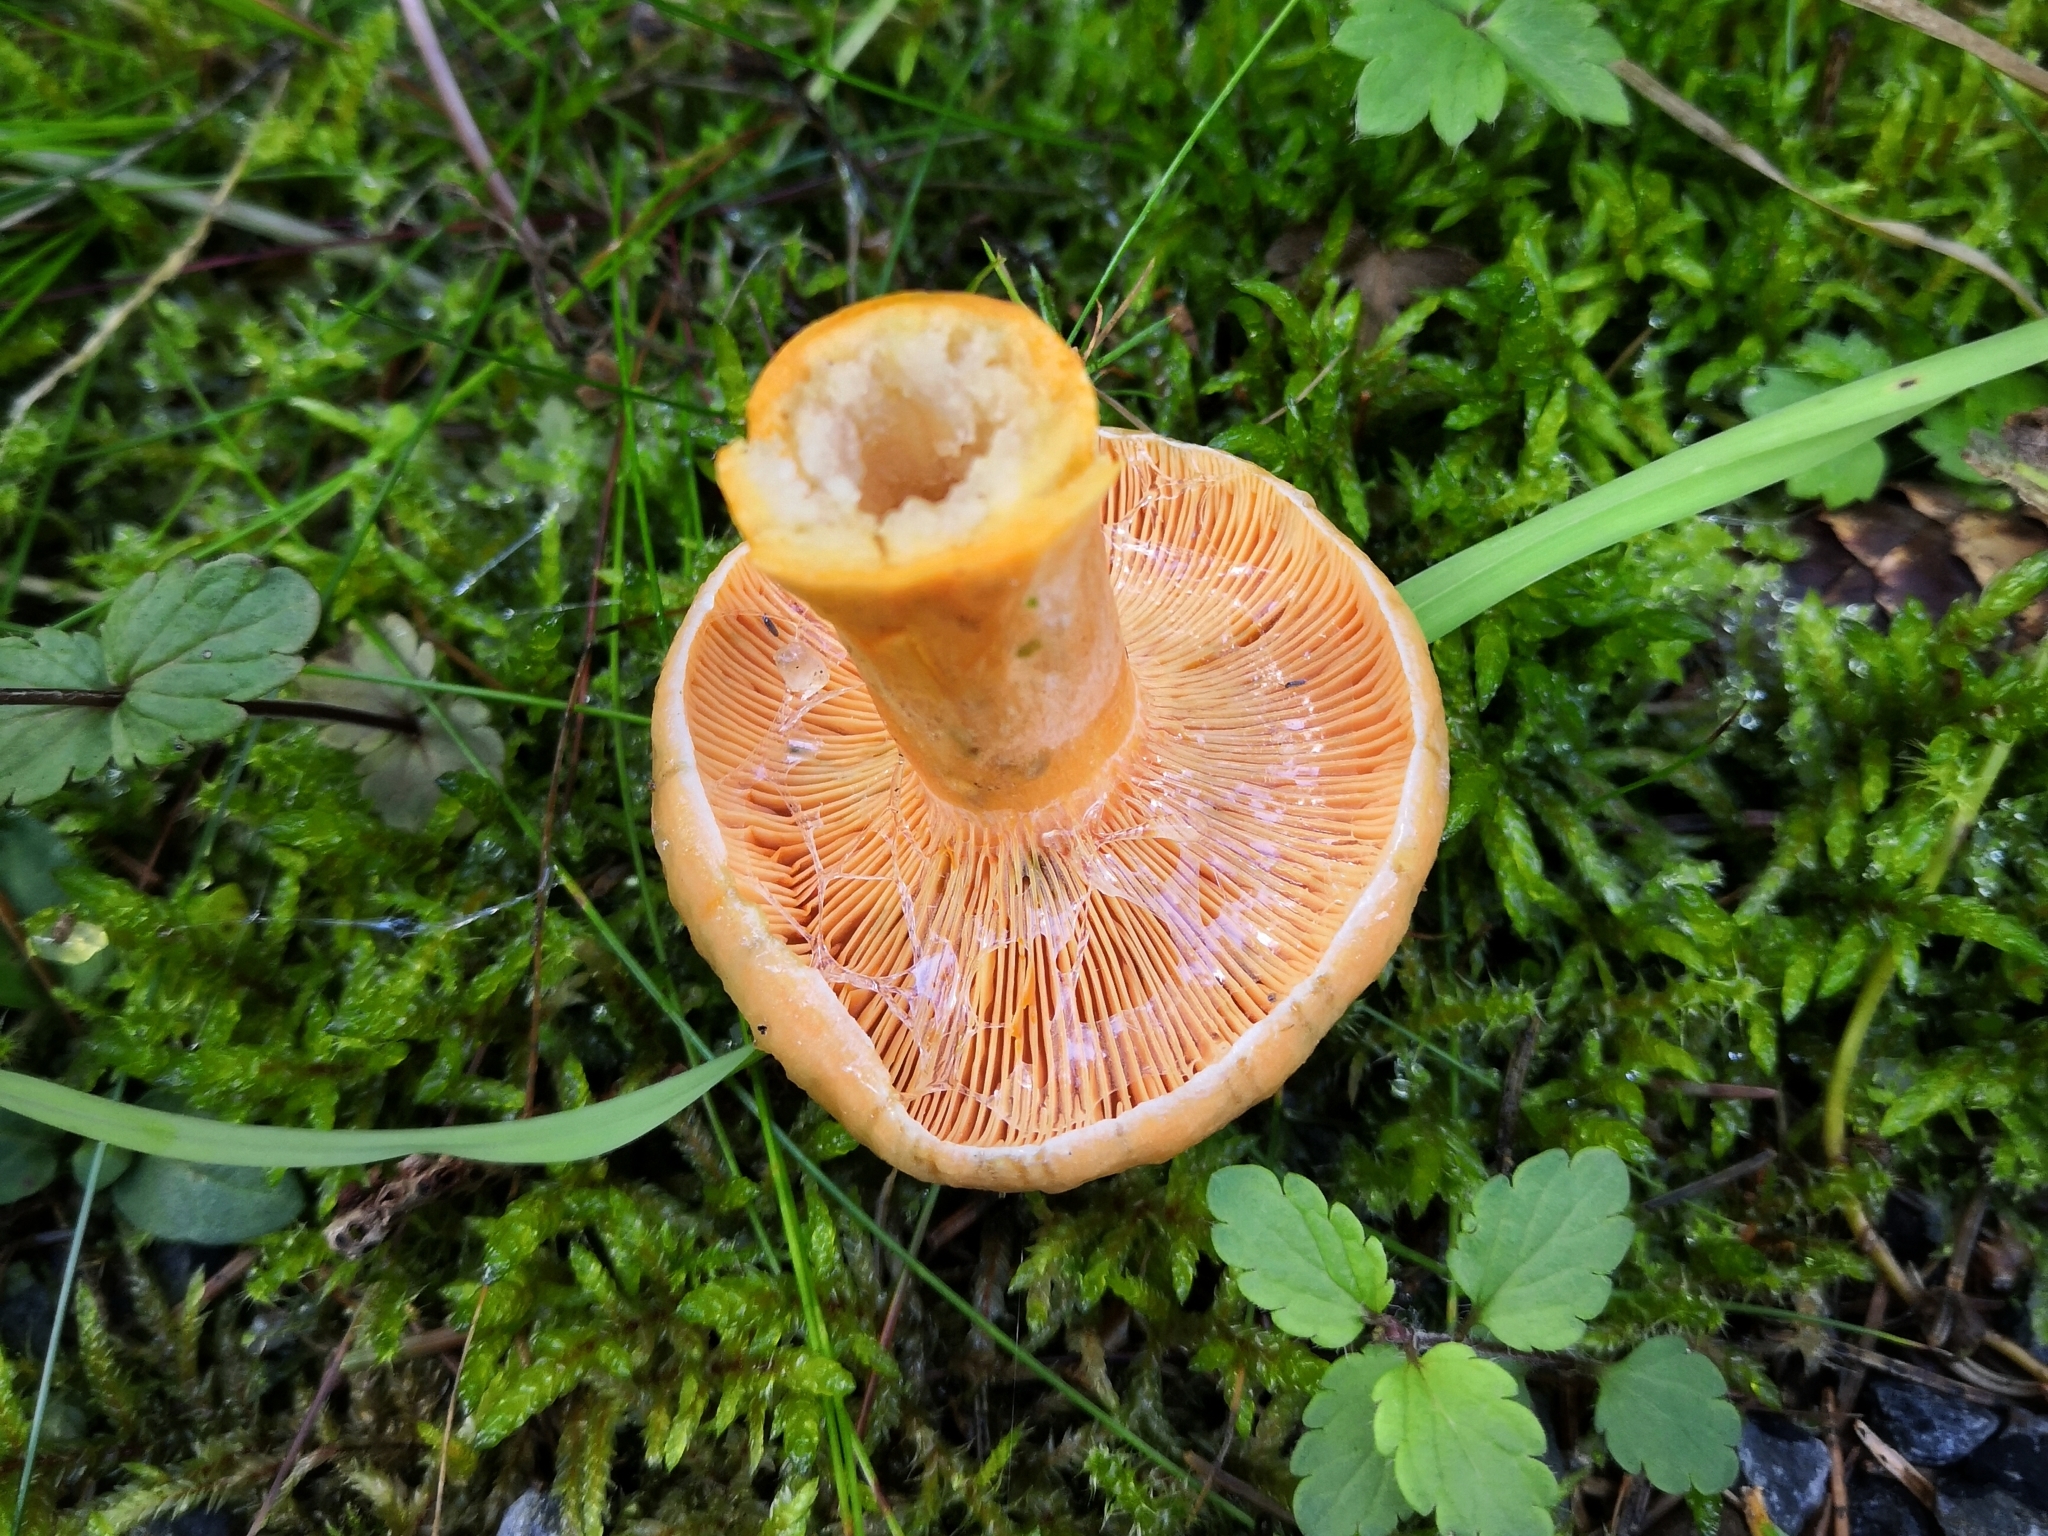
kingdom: Fungi
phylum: Basidiomycota
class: Agaricomycetes
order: Russulales
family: Russulaceae
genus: Lactarius
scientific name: Lactarius deterrimus
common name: False saffron milkcap
